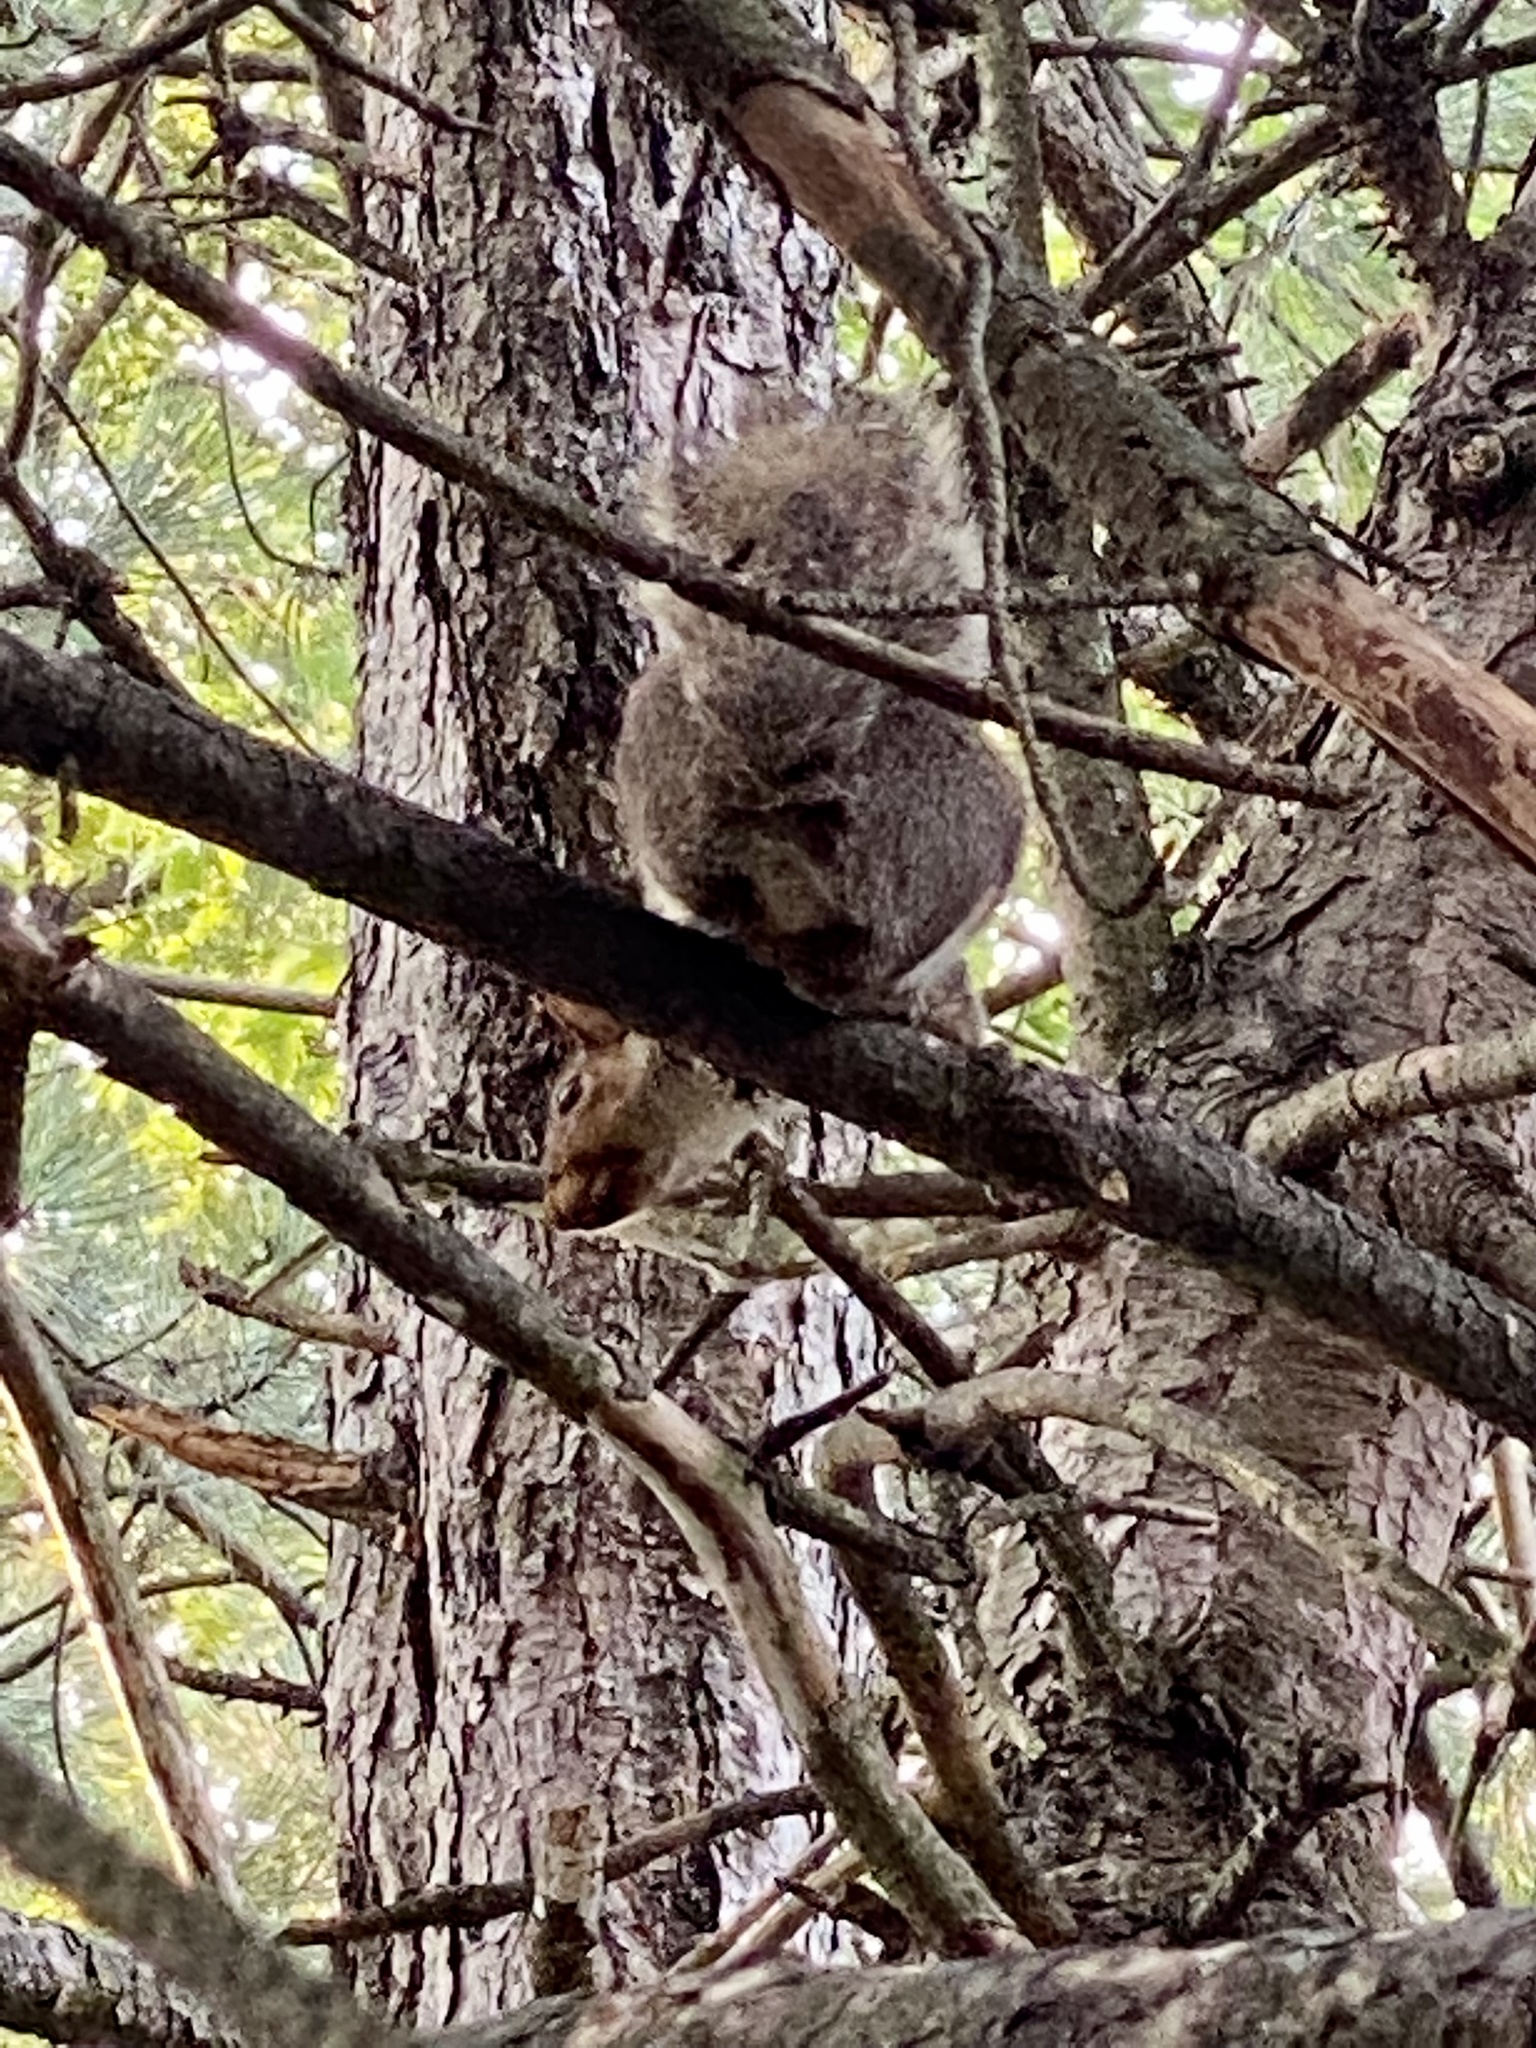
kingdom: Animalia
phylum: Chordata
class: Mammalia
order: Rodentia
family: Sciuridae
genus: Sciurus
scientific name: Sciurus carolinensis
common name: Eastern gray squirrel
